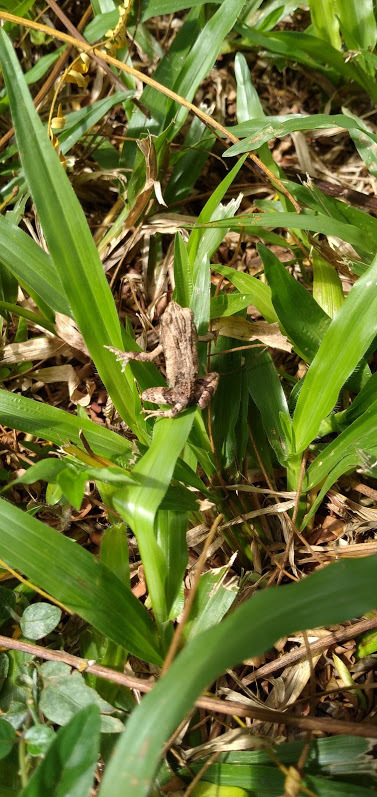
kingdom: Animalia
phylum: Chordata
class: Amphibia
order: Anura
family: Leptodactylidae
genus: Engystomops
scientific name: Engystomops pustulosus
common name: Tungara frog
